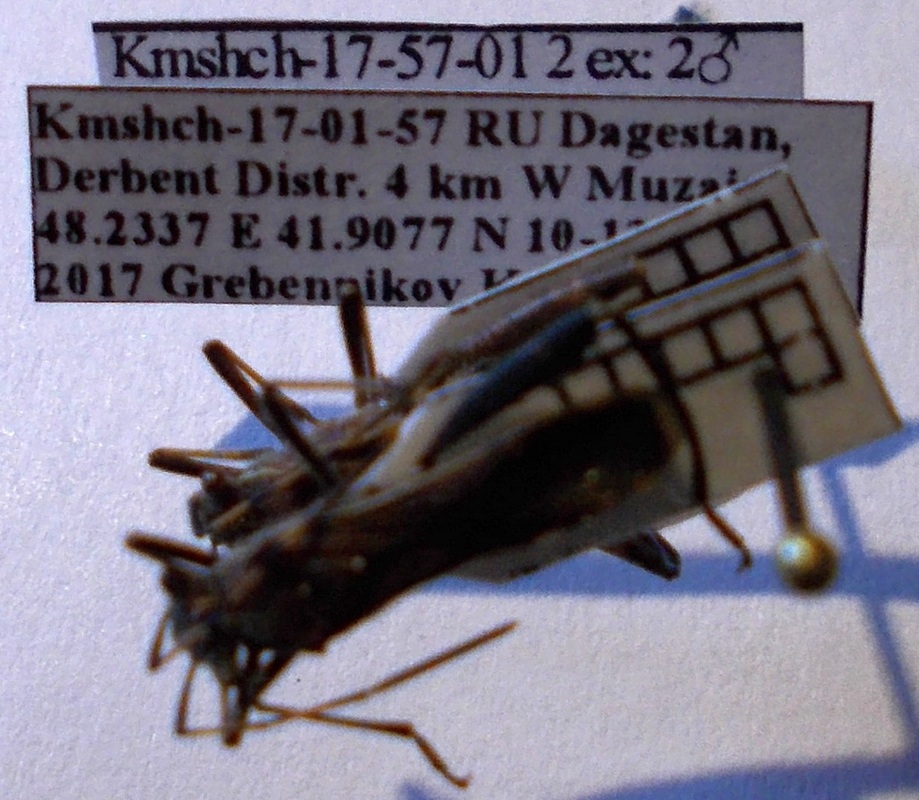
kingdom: Animalia
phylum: Arthropoda
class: Insecta
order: Hemiptera
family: Alydidae
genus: Camptopus
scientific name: Camptopus lateralis
